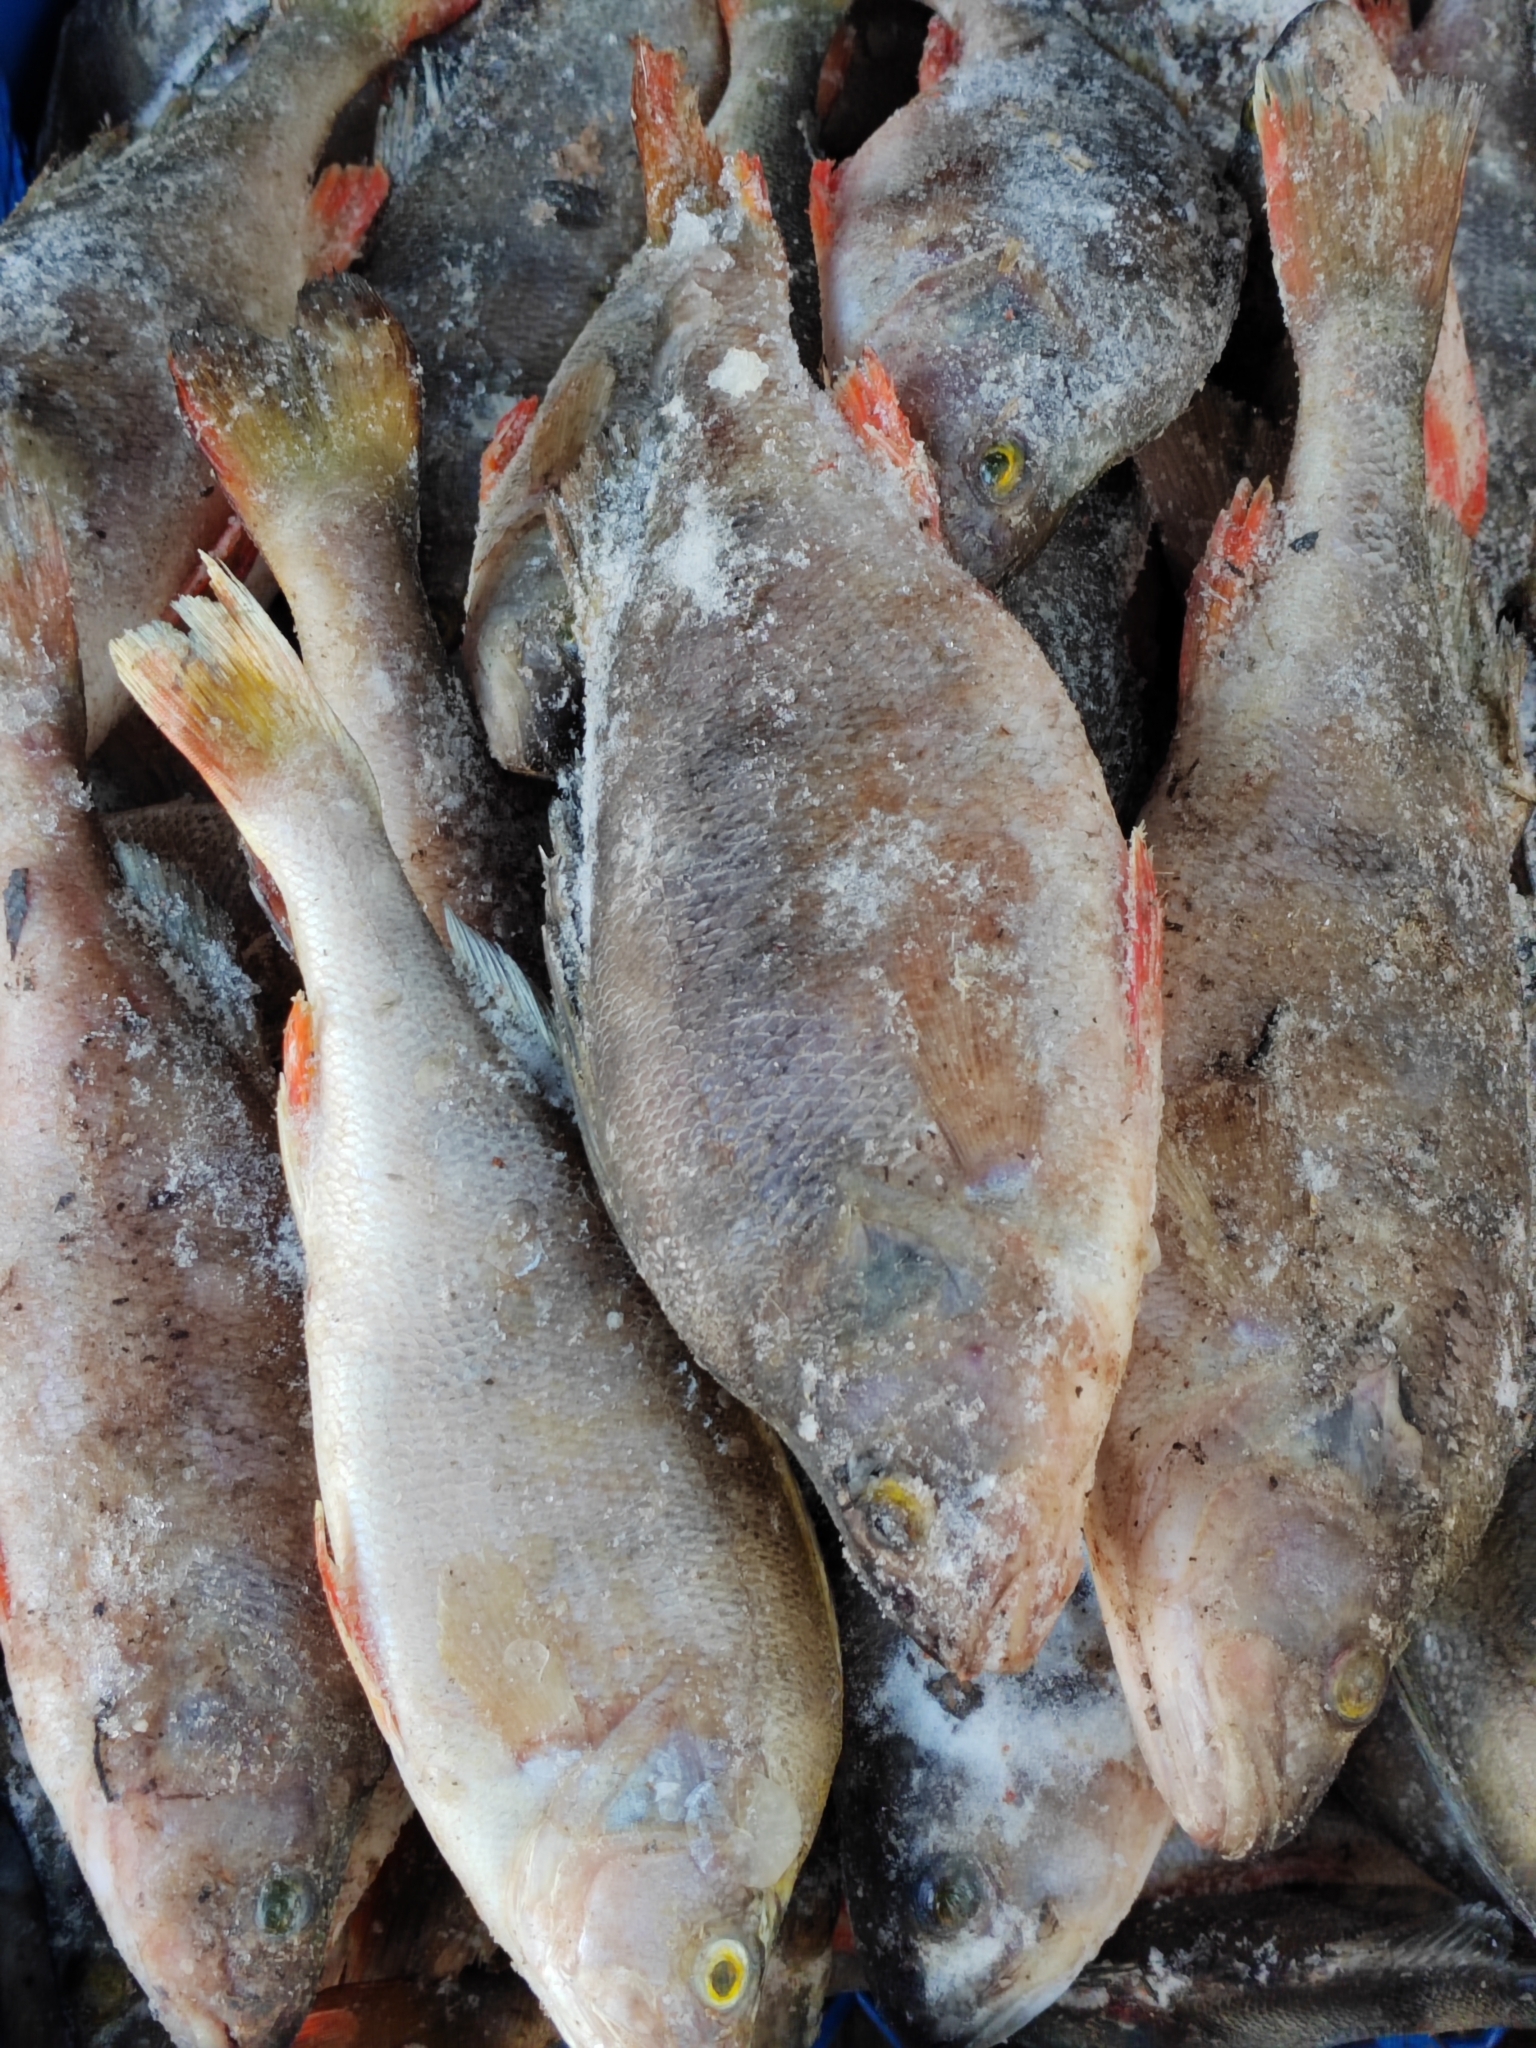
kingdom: Animalia
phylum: Chordata
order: Perciformes
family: Percidae
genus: Perca
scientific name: Perca fluviatilis
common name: Perch
